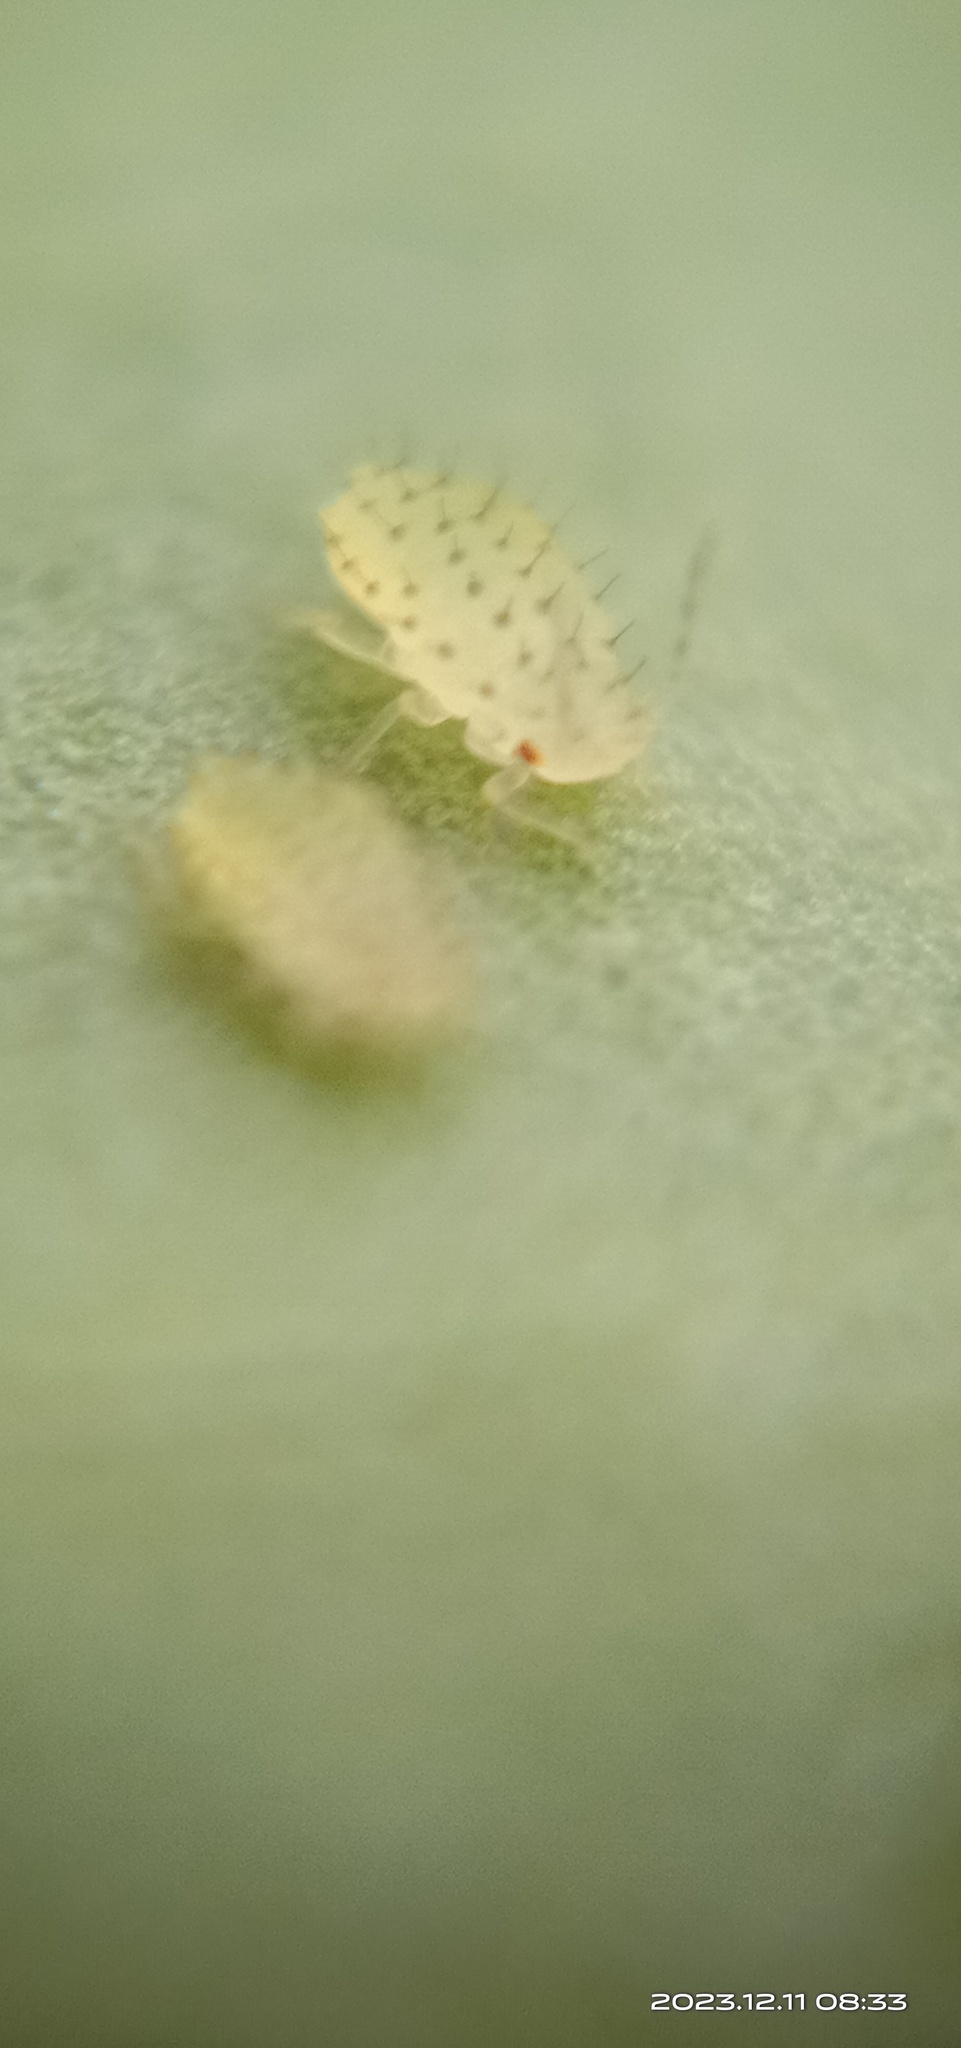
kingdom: Animalia
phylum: Arthropoda
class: Insecta
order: Hemiptera
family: Aphididae
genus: Sarucallis
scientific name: Sarucallis kahawaluokalani
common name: Crapemyrtle aphid
